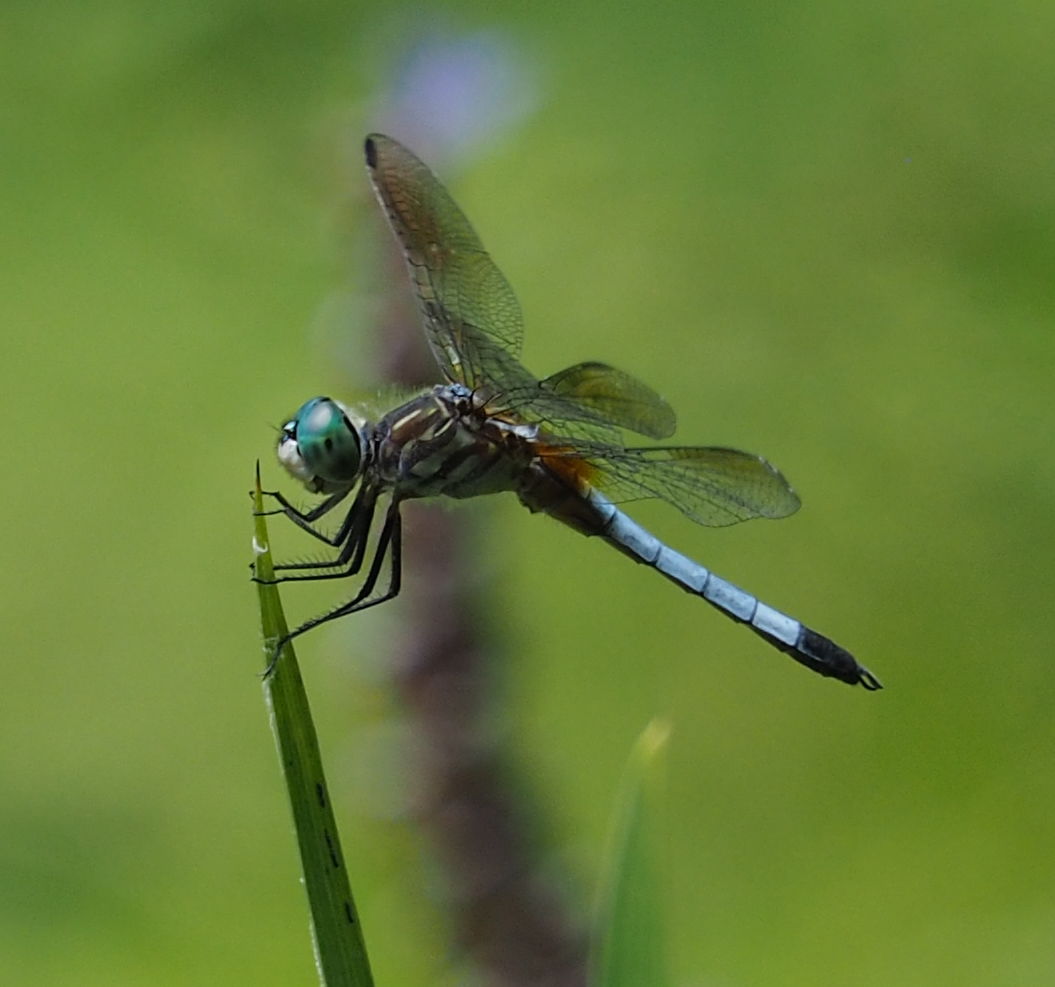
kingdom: Animalia
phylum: Arthropoda
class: Insecta
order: Odonata
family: Libellulidae
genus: Pachydiplax
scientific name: Pachydiplax longipennis
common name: Blue dasher
